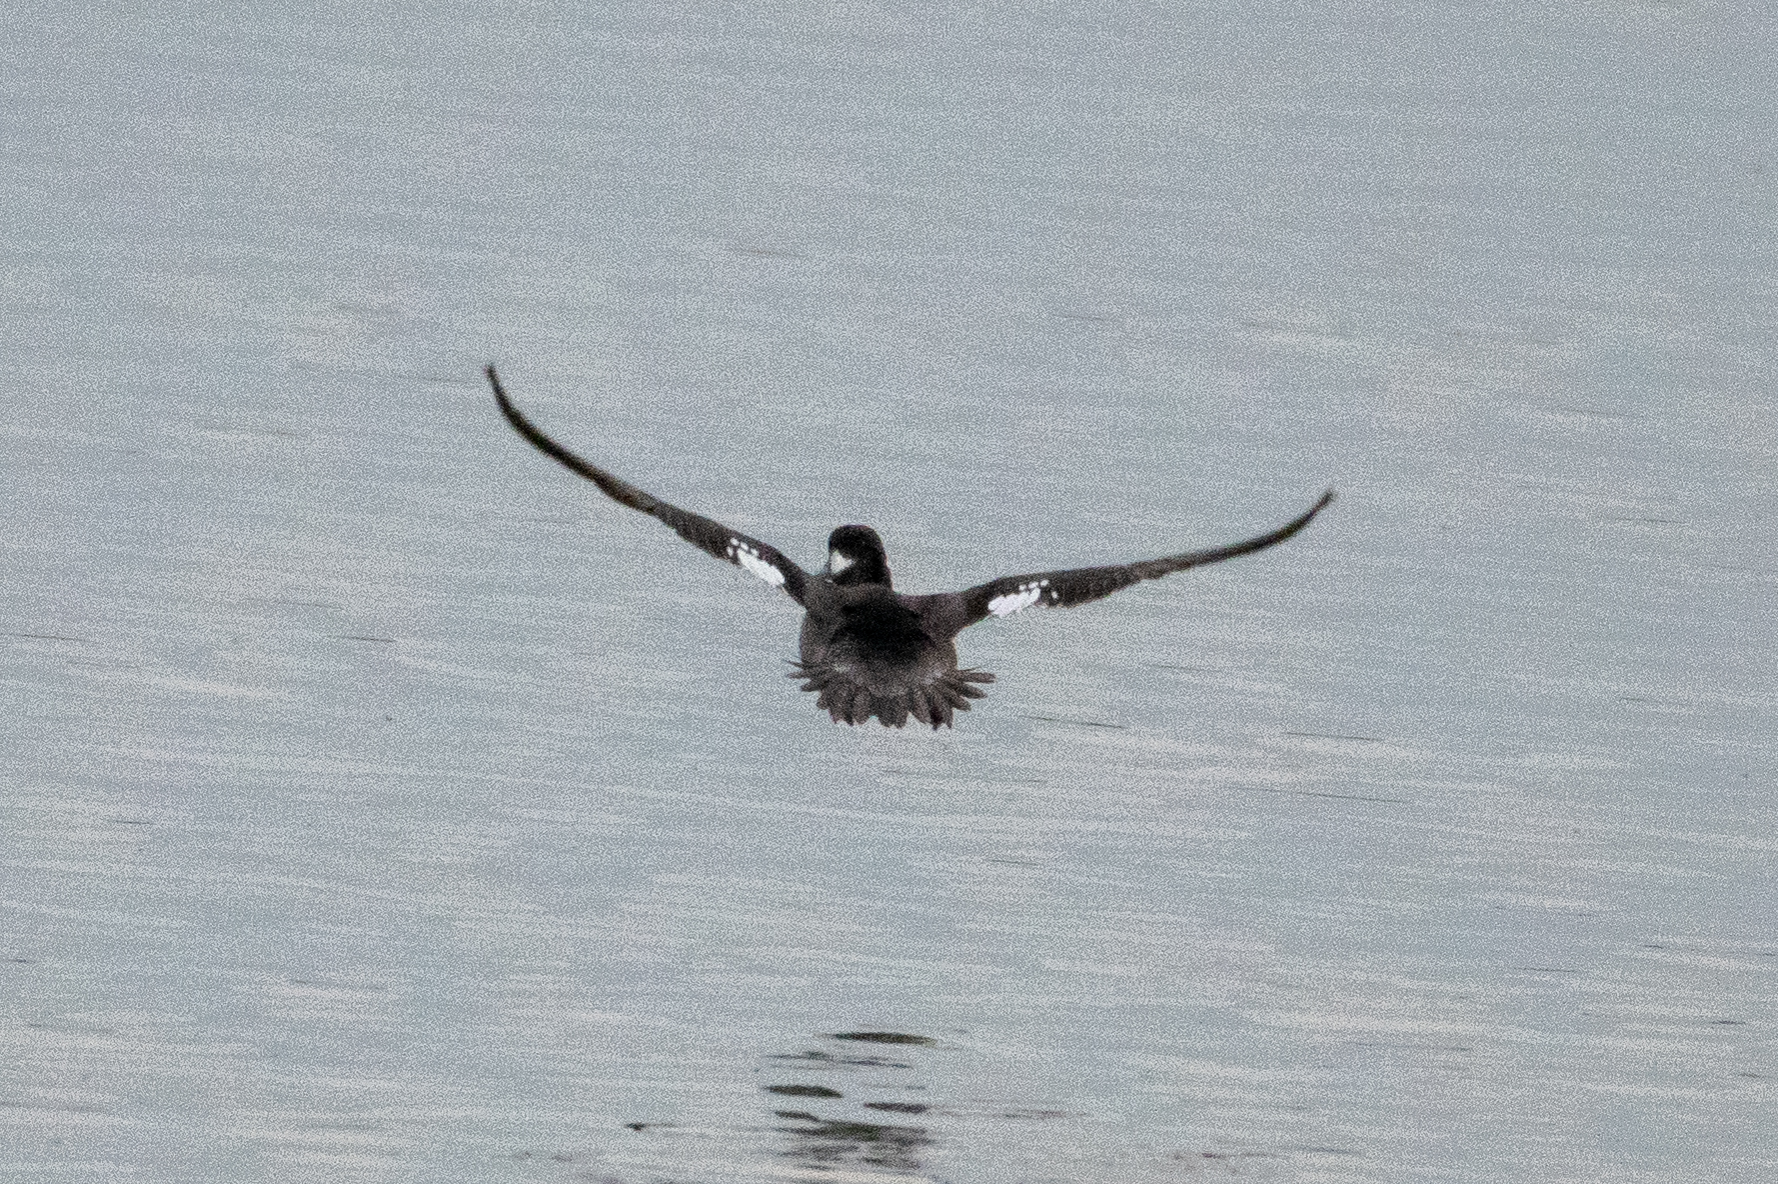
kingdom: Animalia
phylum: Chordata
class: Aves
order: Anseriformes
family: Anatidae
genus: Bucephala
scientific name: Bucephala albeola
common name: Bufflehead
